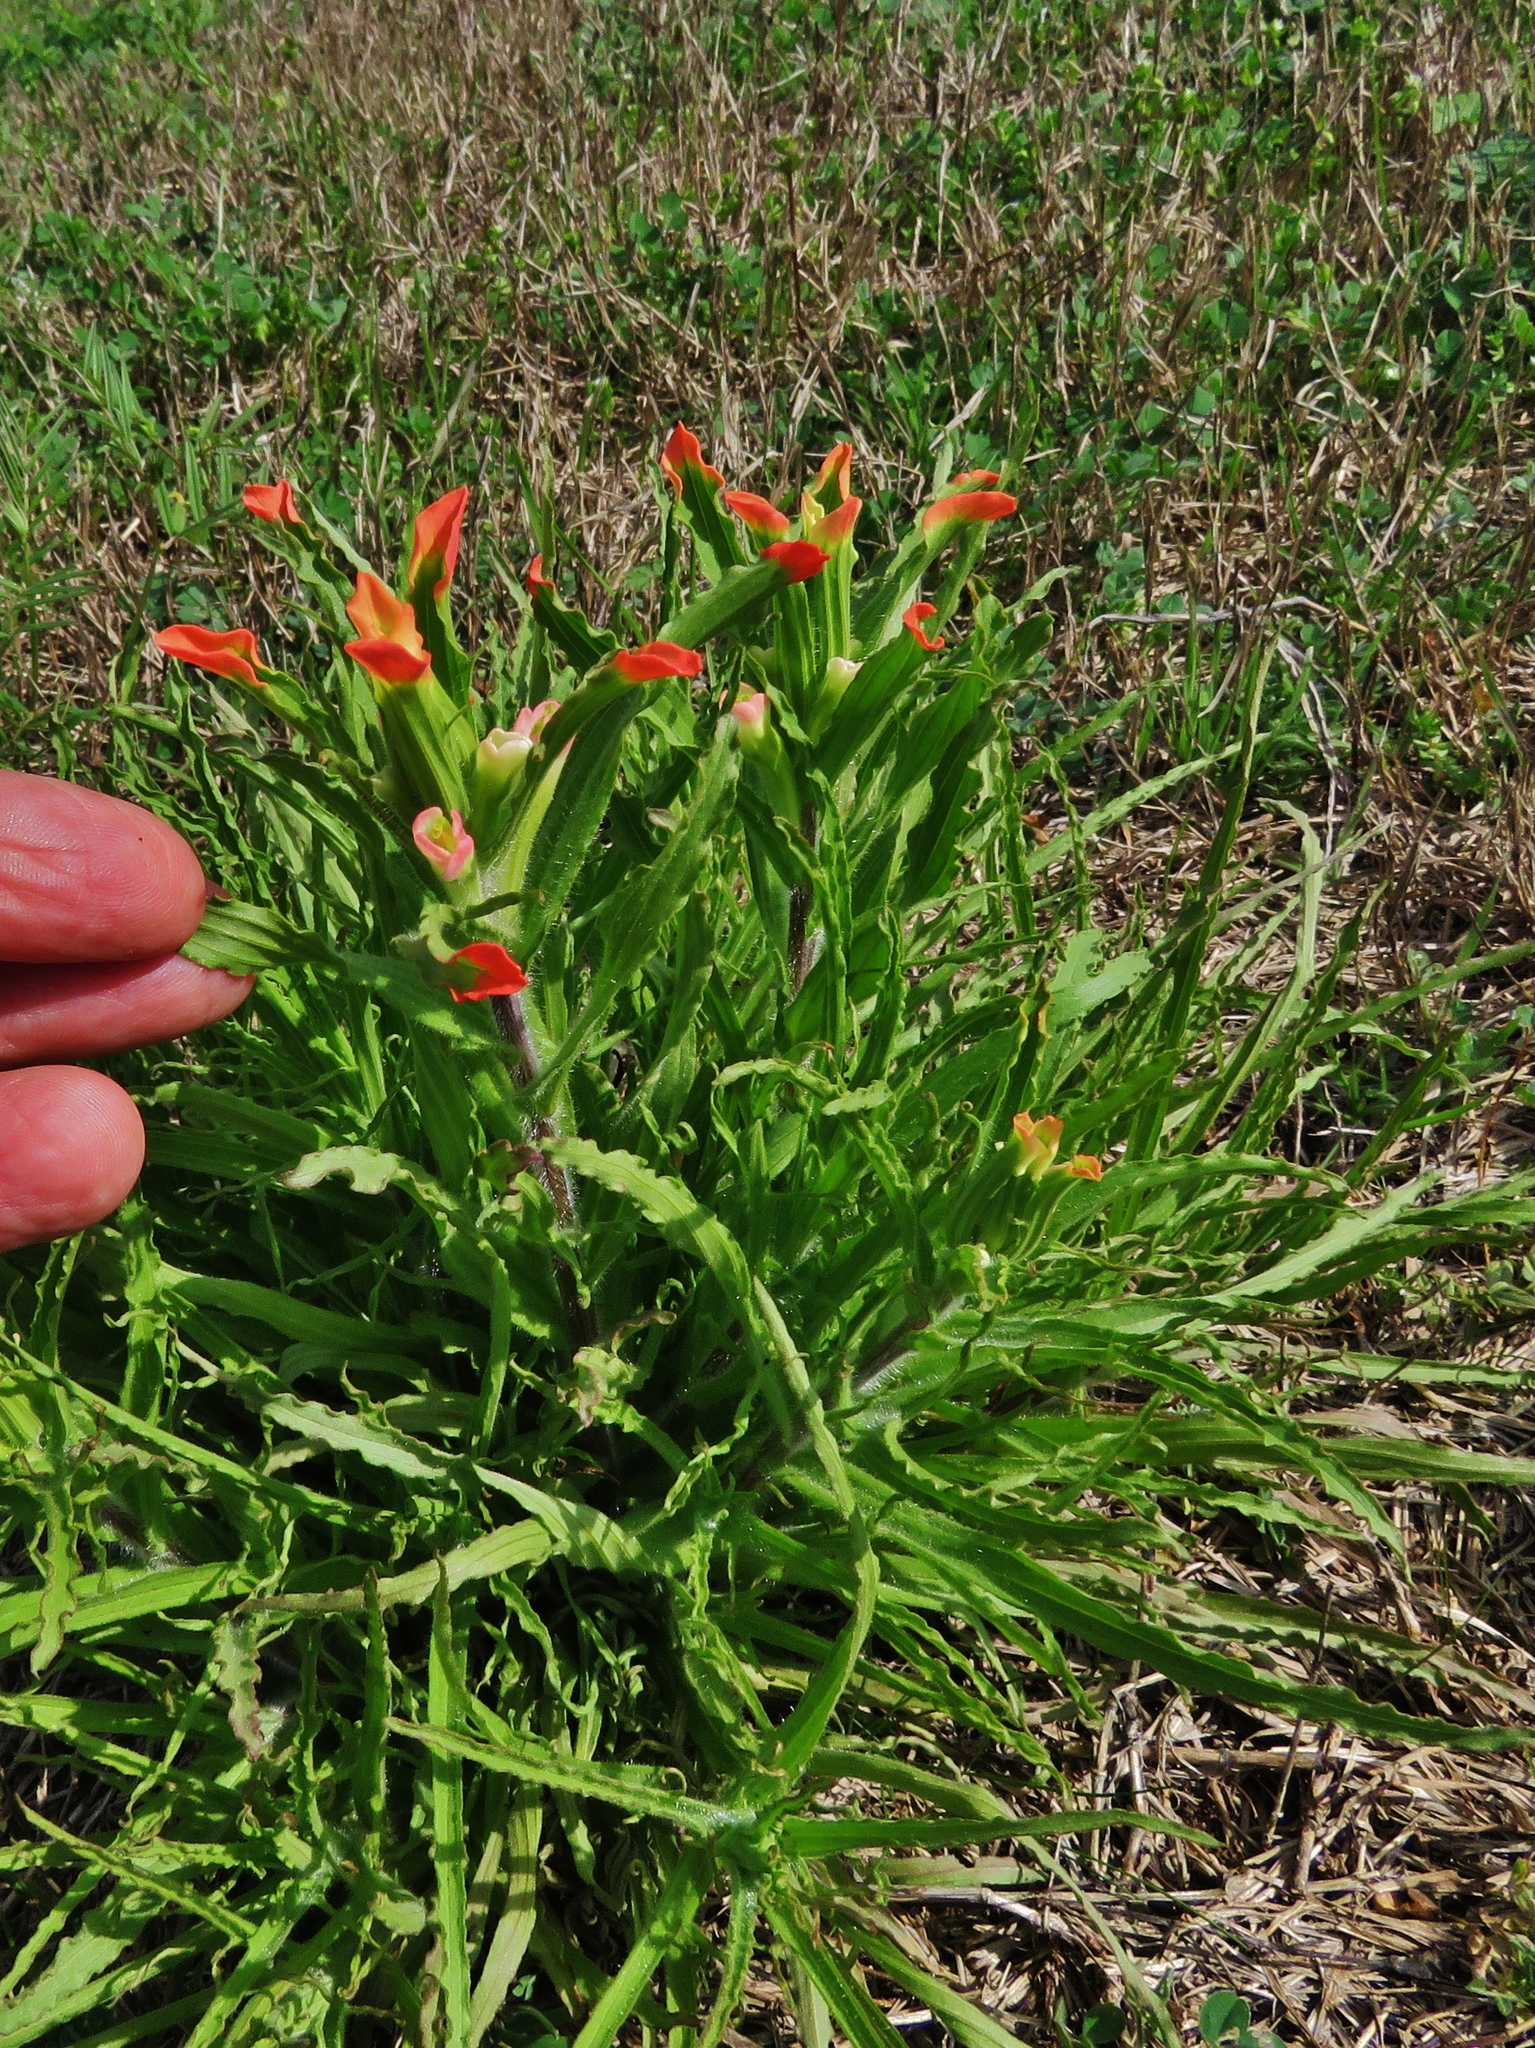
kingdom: Plantae
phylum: Tracheophyta
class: Magnoliopsida
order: Lamiales
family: Orobanchaceae
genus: Castilleja
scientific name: Castilleja indivisa
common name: Texas paintbrush
